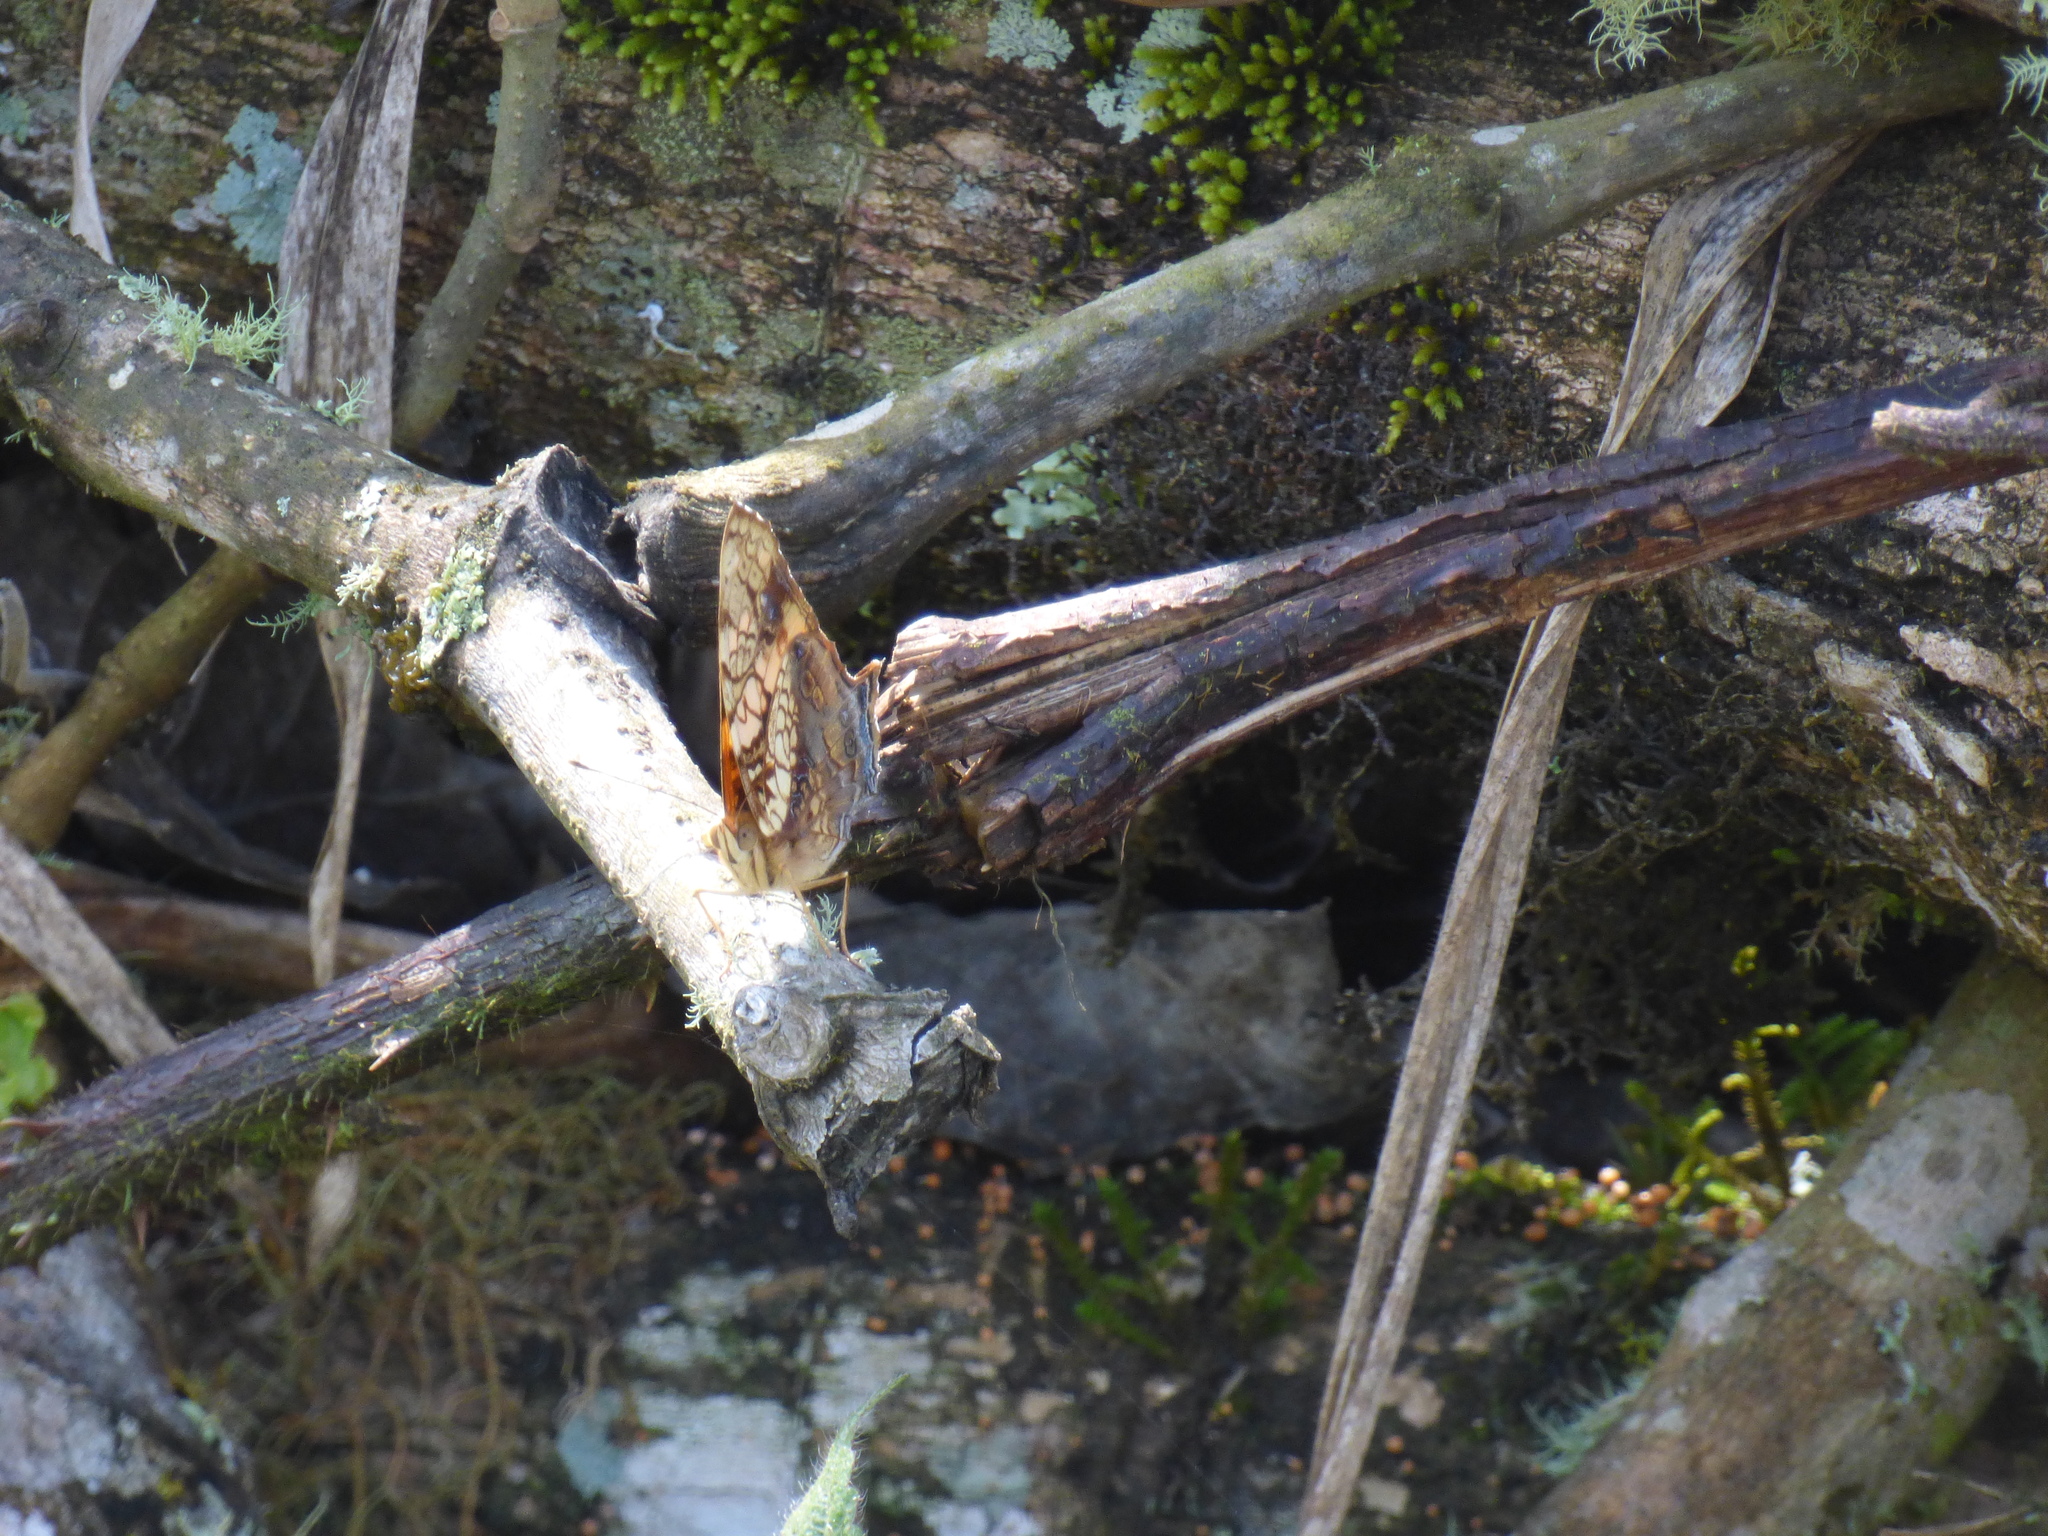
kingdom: Animalia
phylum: Arthropoda
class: Insecta
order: Lepidoptera
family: Nymphalidae
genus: Hypanartia
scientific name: Hypanartia lethe
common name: Orange mapwing
